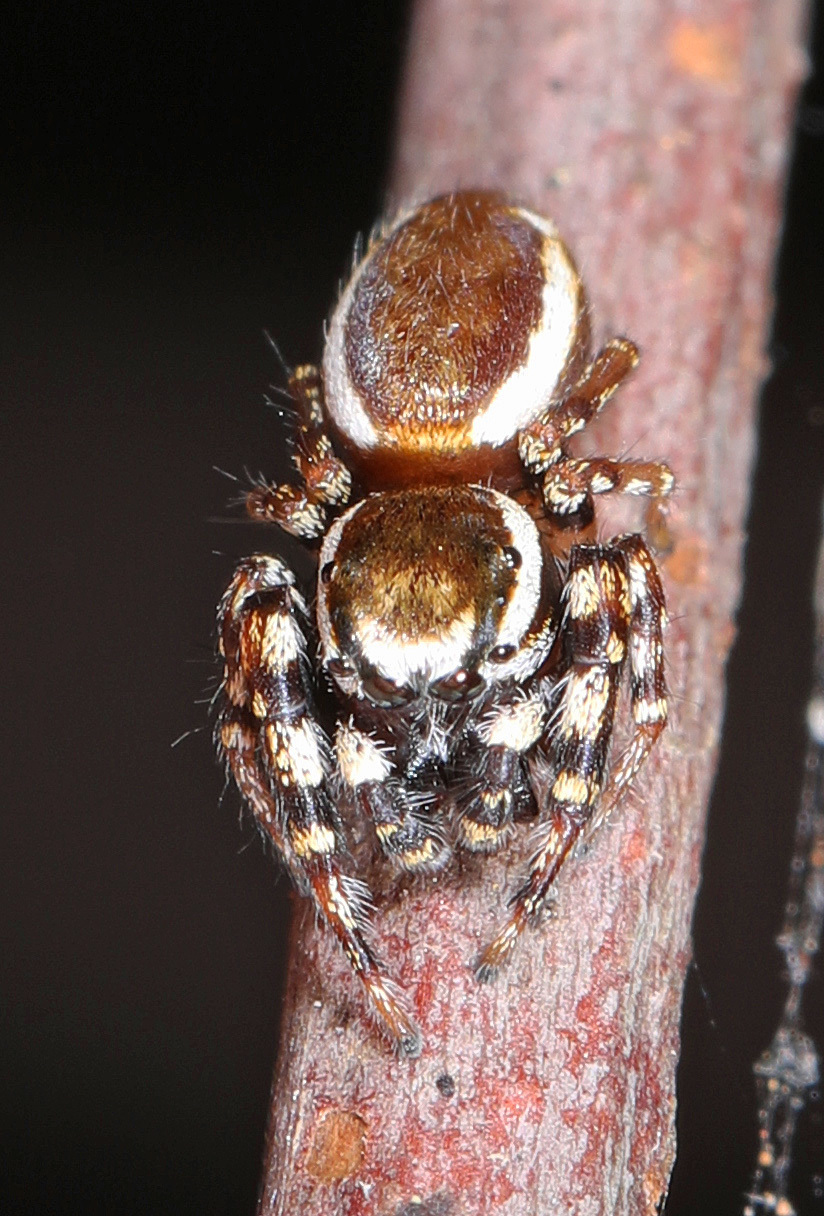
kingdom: Animalia
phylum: Arthropoda
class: Arachnida
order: Araneae
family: Salticidae
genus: Pelegrina
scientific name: Pelegrina proterva
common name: Common white-cheeked jumping spider
